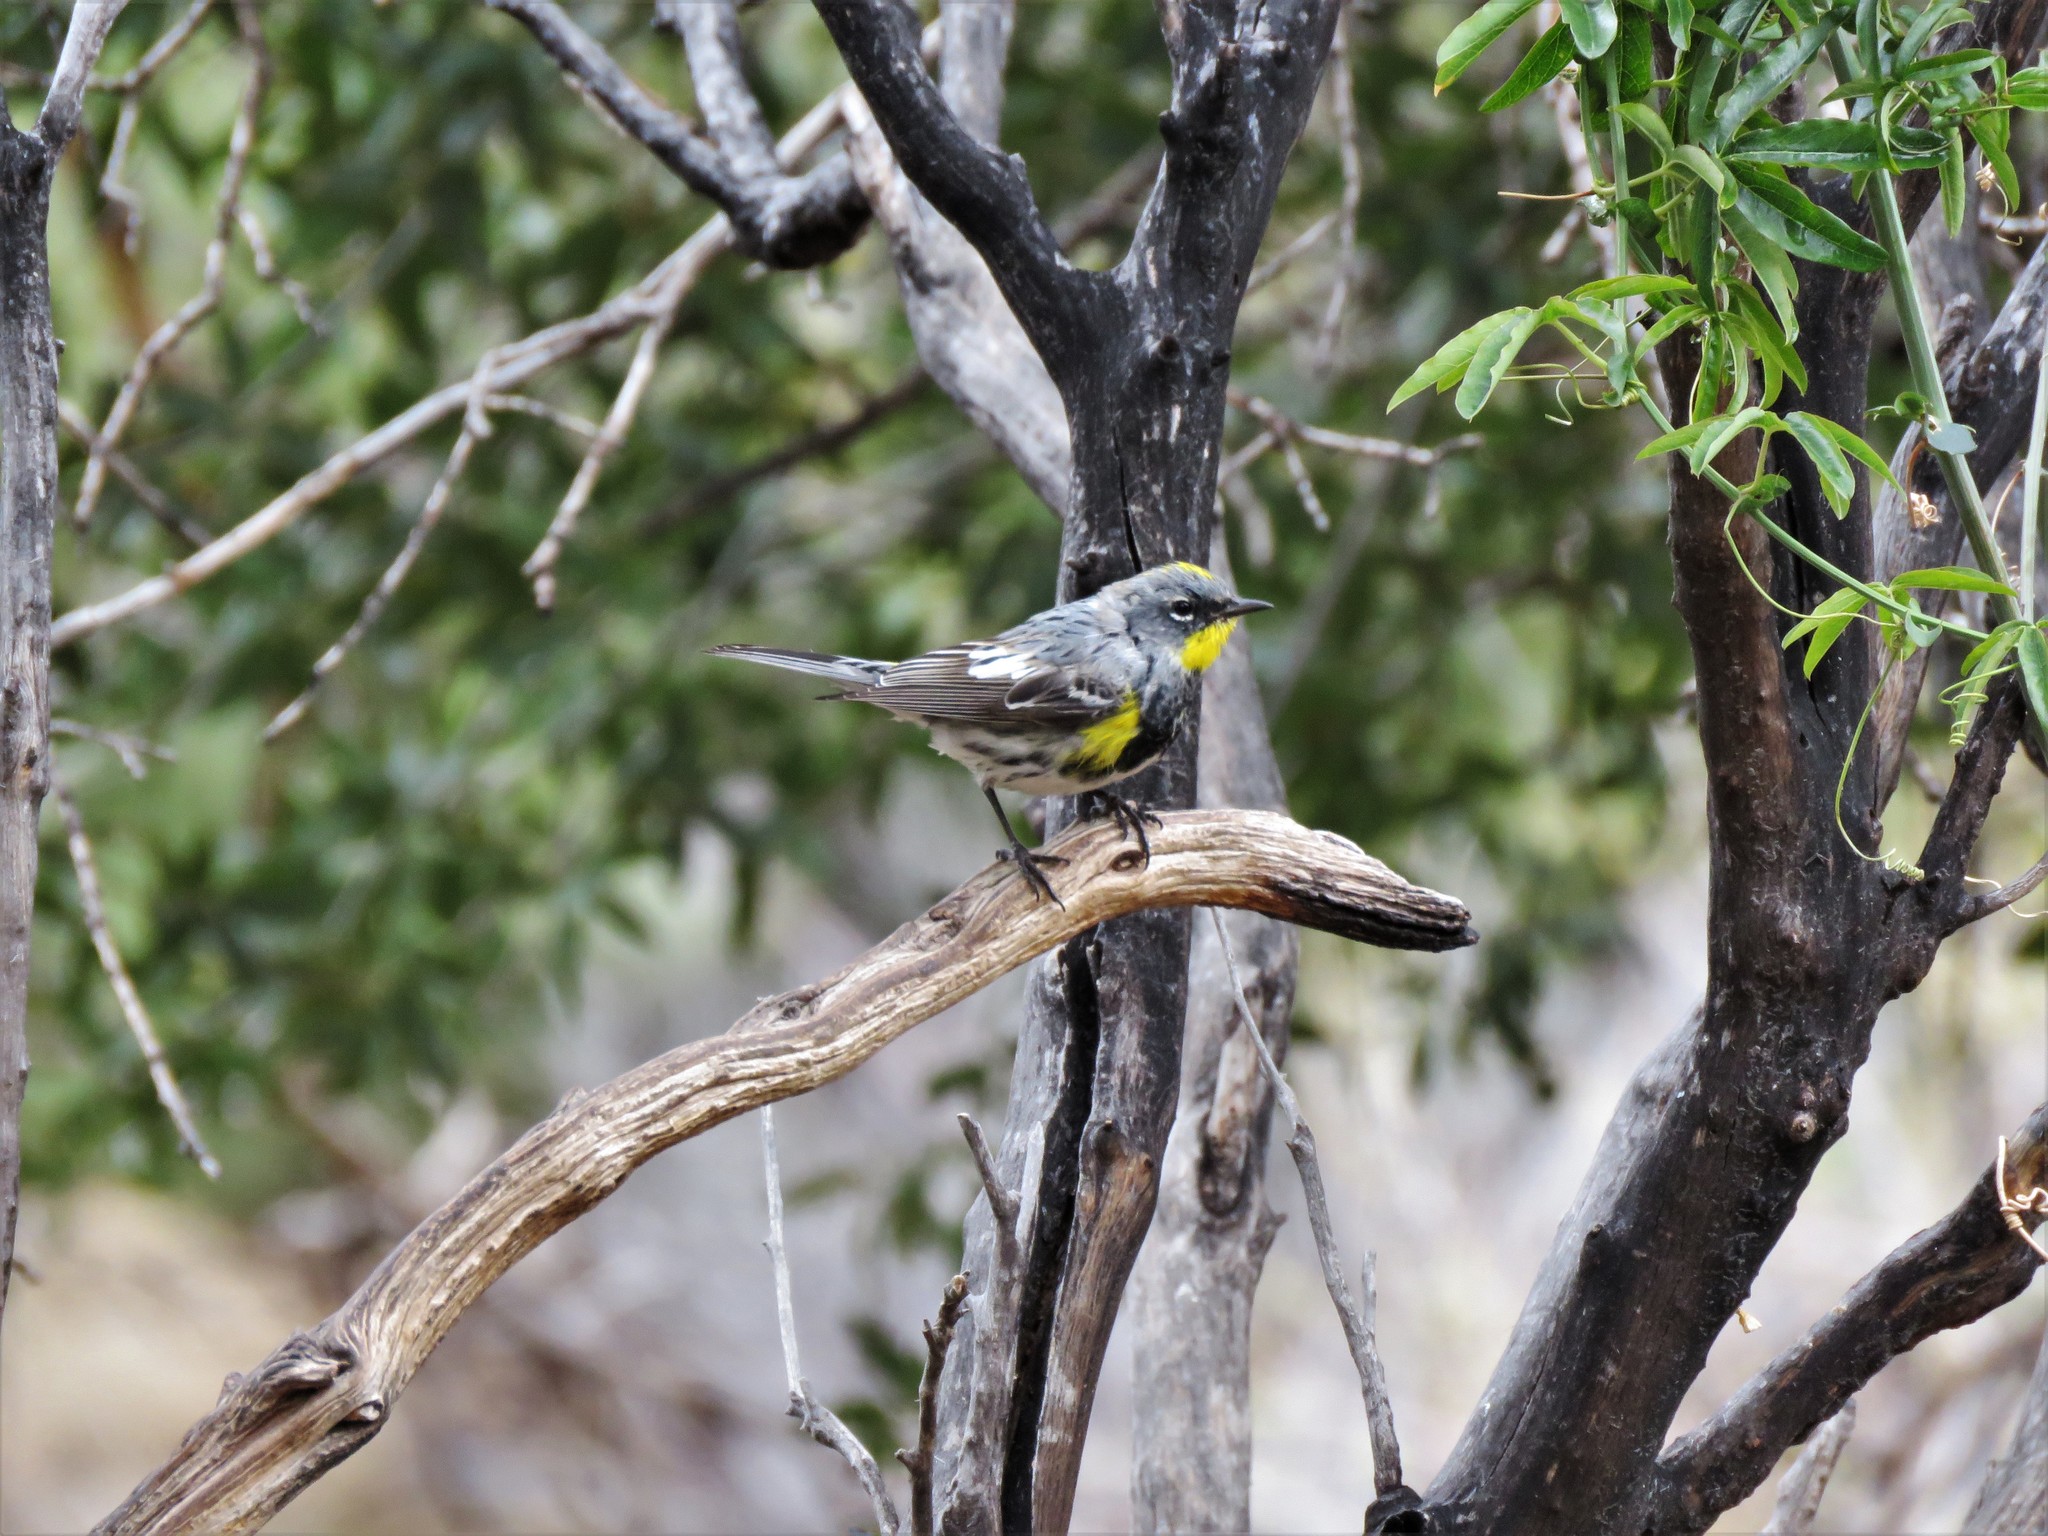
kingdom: Animalia
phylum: Chordata
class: Aves
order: Passeriformes
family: Parulidae
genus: Setophaga
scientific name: Setophaga auduboni
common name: Audubon's warbler
